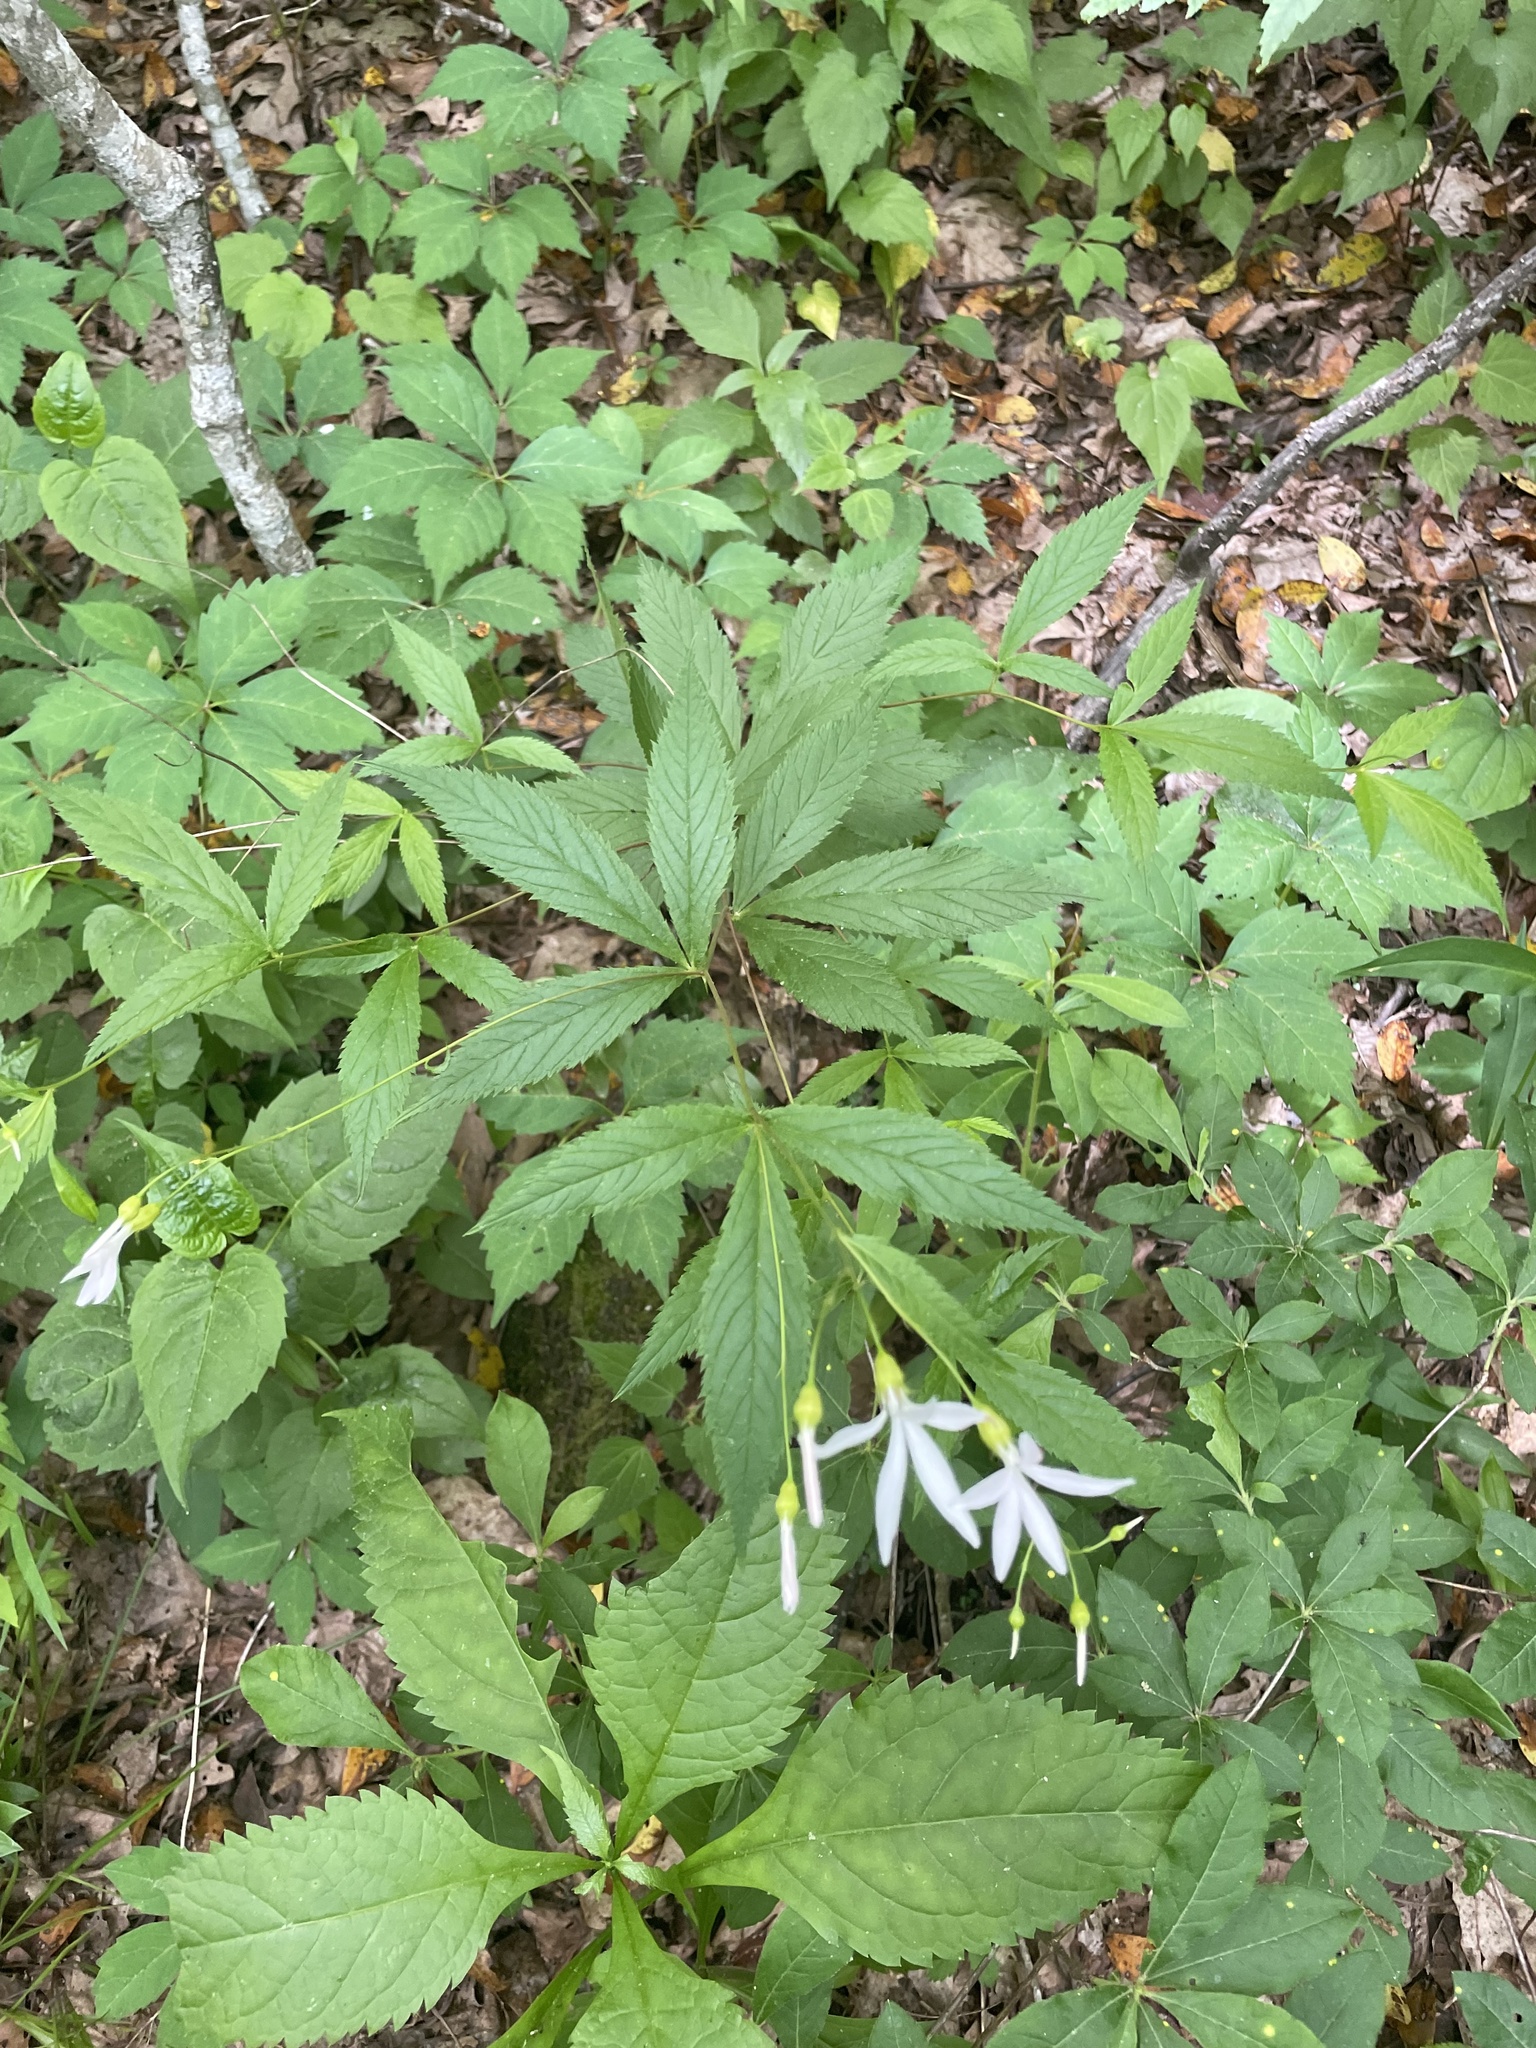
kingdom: Plantae
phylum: Tracheophyta
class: Magnoliopsida
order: Rosales
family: Rosaceae
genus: Gillenia
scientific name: Gillenia trifoliata
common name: Bowman's-root
